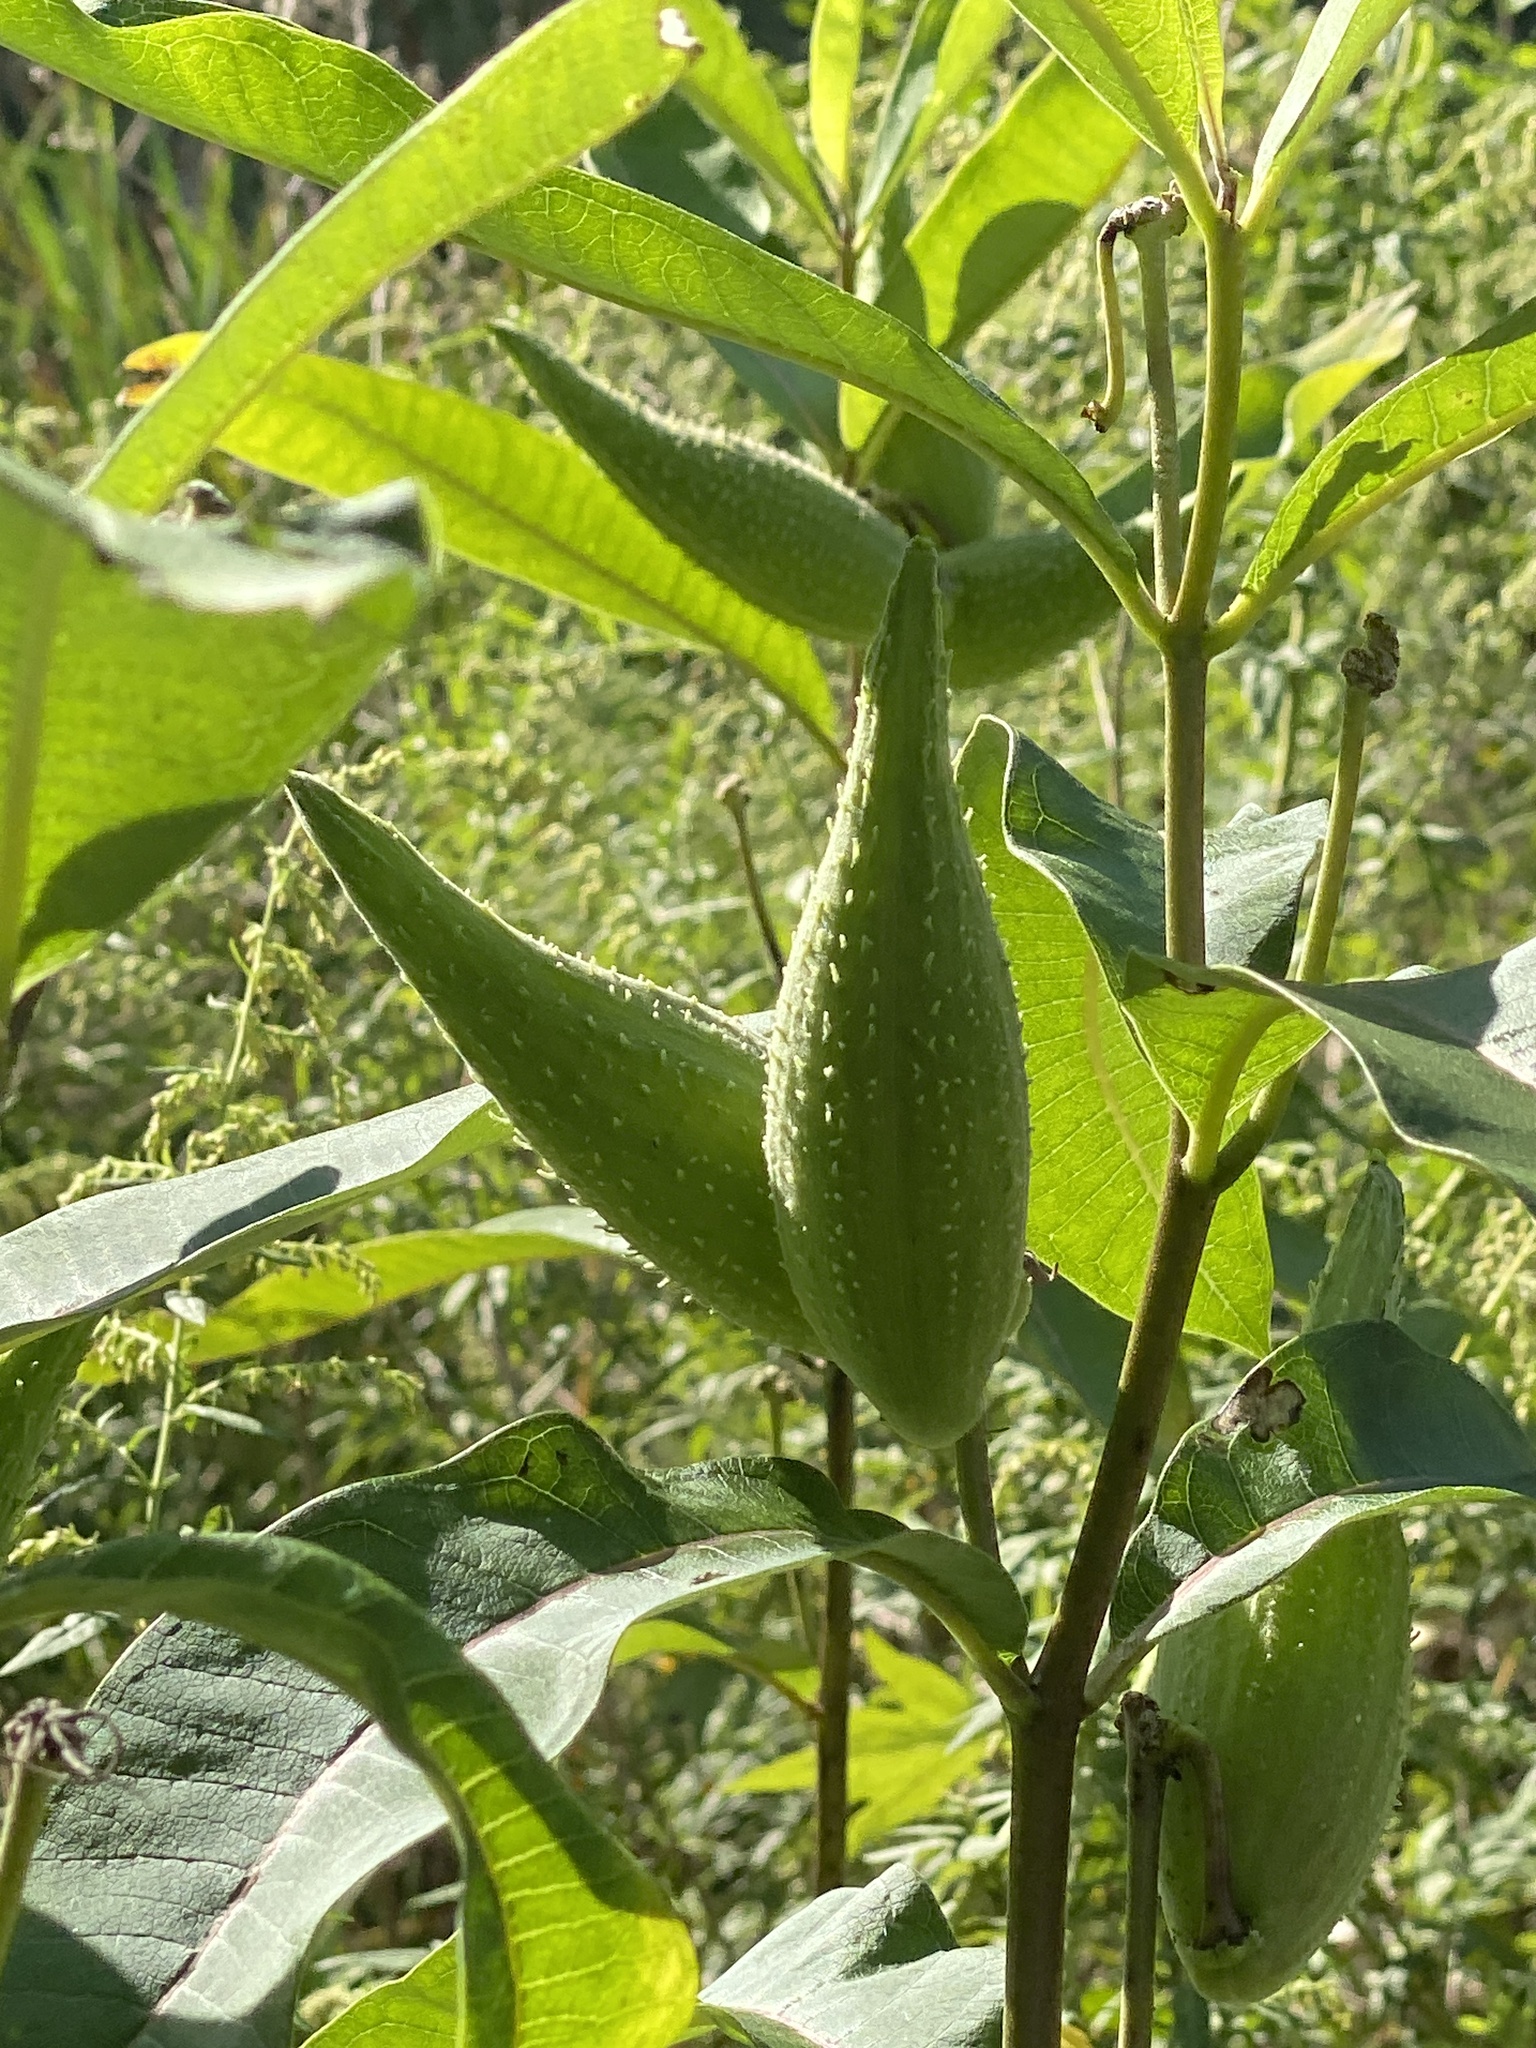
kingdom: Plantae
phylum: Tracheophyta
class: Magnoliopsida
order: Gentianales
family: Apocynaceae
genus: Asclepias
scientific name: Asclepias syriaca
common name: Common milkweed
